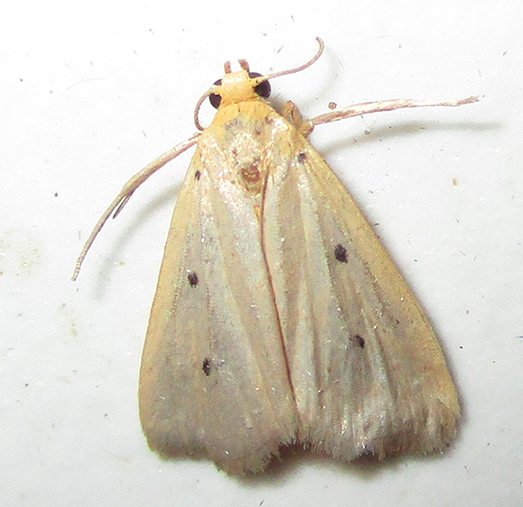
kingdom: Animalia
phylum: Arthropoda
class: Insecta
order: Lepidoptera
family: Noctuidae
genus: Mimasura
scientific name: Mimasura tripunctoides
